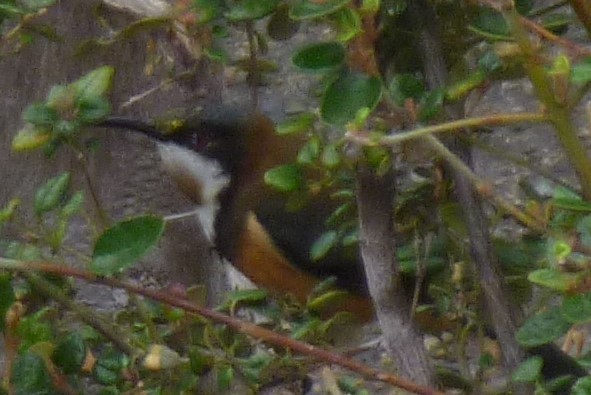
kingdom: Animalia
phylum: Chordata
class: Aves
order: Passeriformes
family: Meliphagidae
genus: Acanthorhynchus
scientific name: Acanthorhynchus tenuirostris
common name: Eastern spinebill
